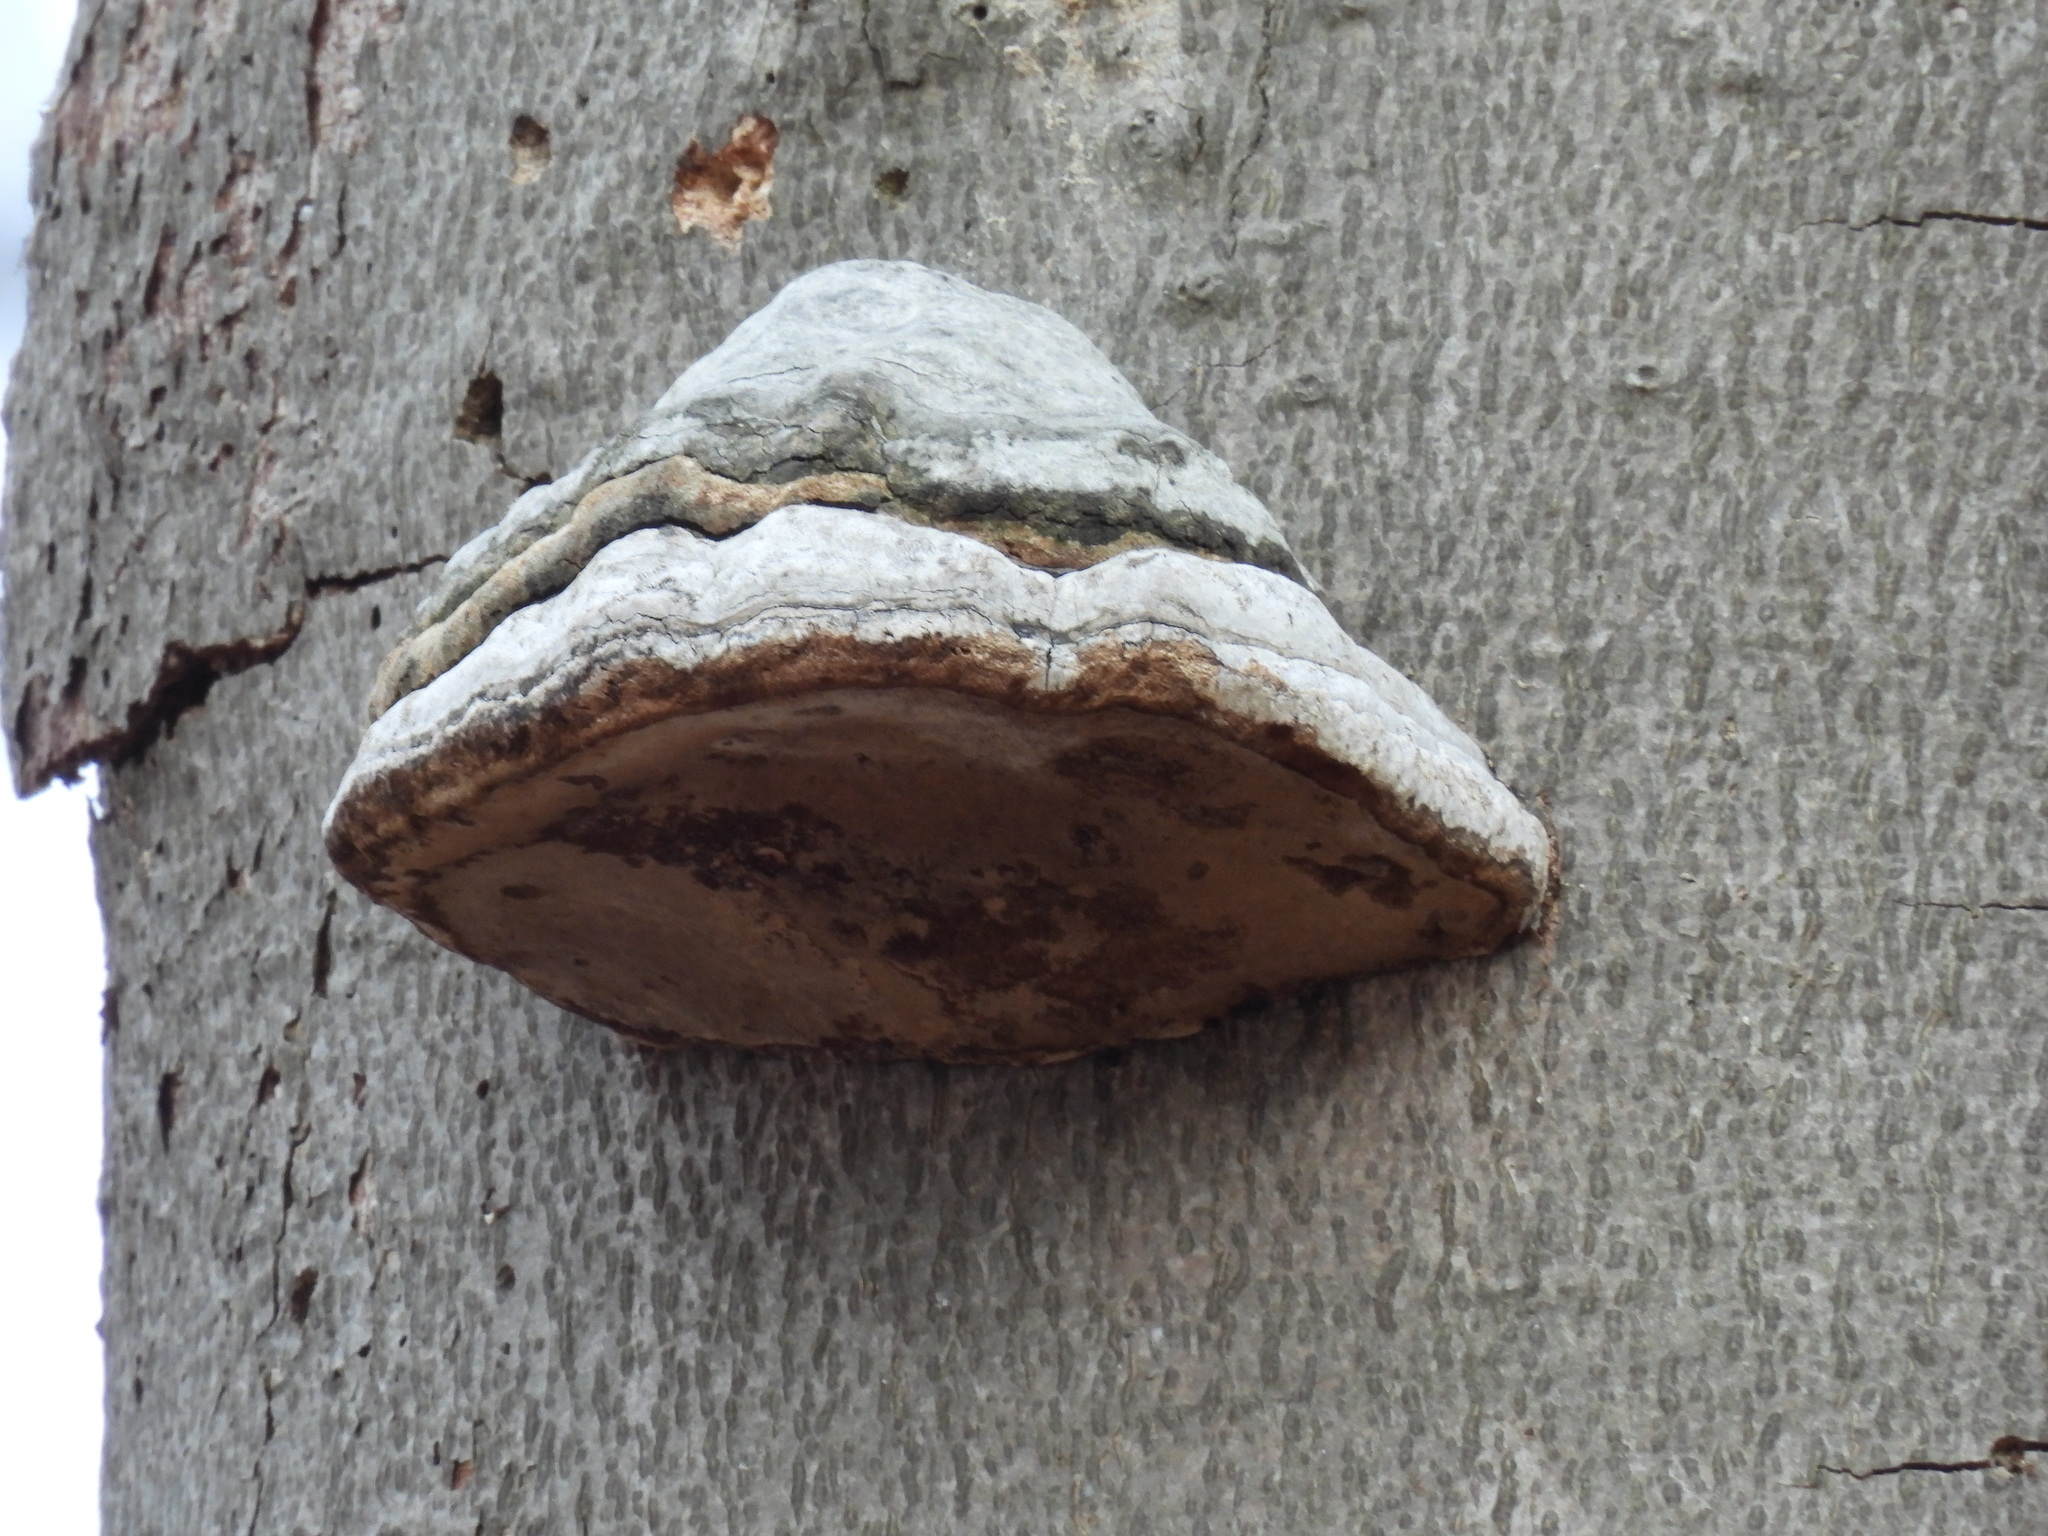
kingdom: Fungi
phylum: Basidiomycota
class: Agaricomycetes
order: Polyporales
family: Polyporaceae
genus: Fomes
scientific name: Fomes fomentarius
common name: Hoof fungus
